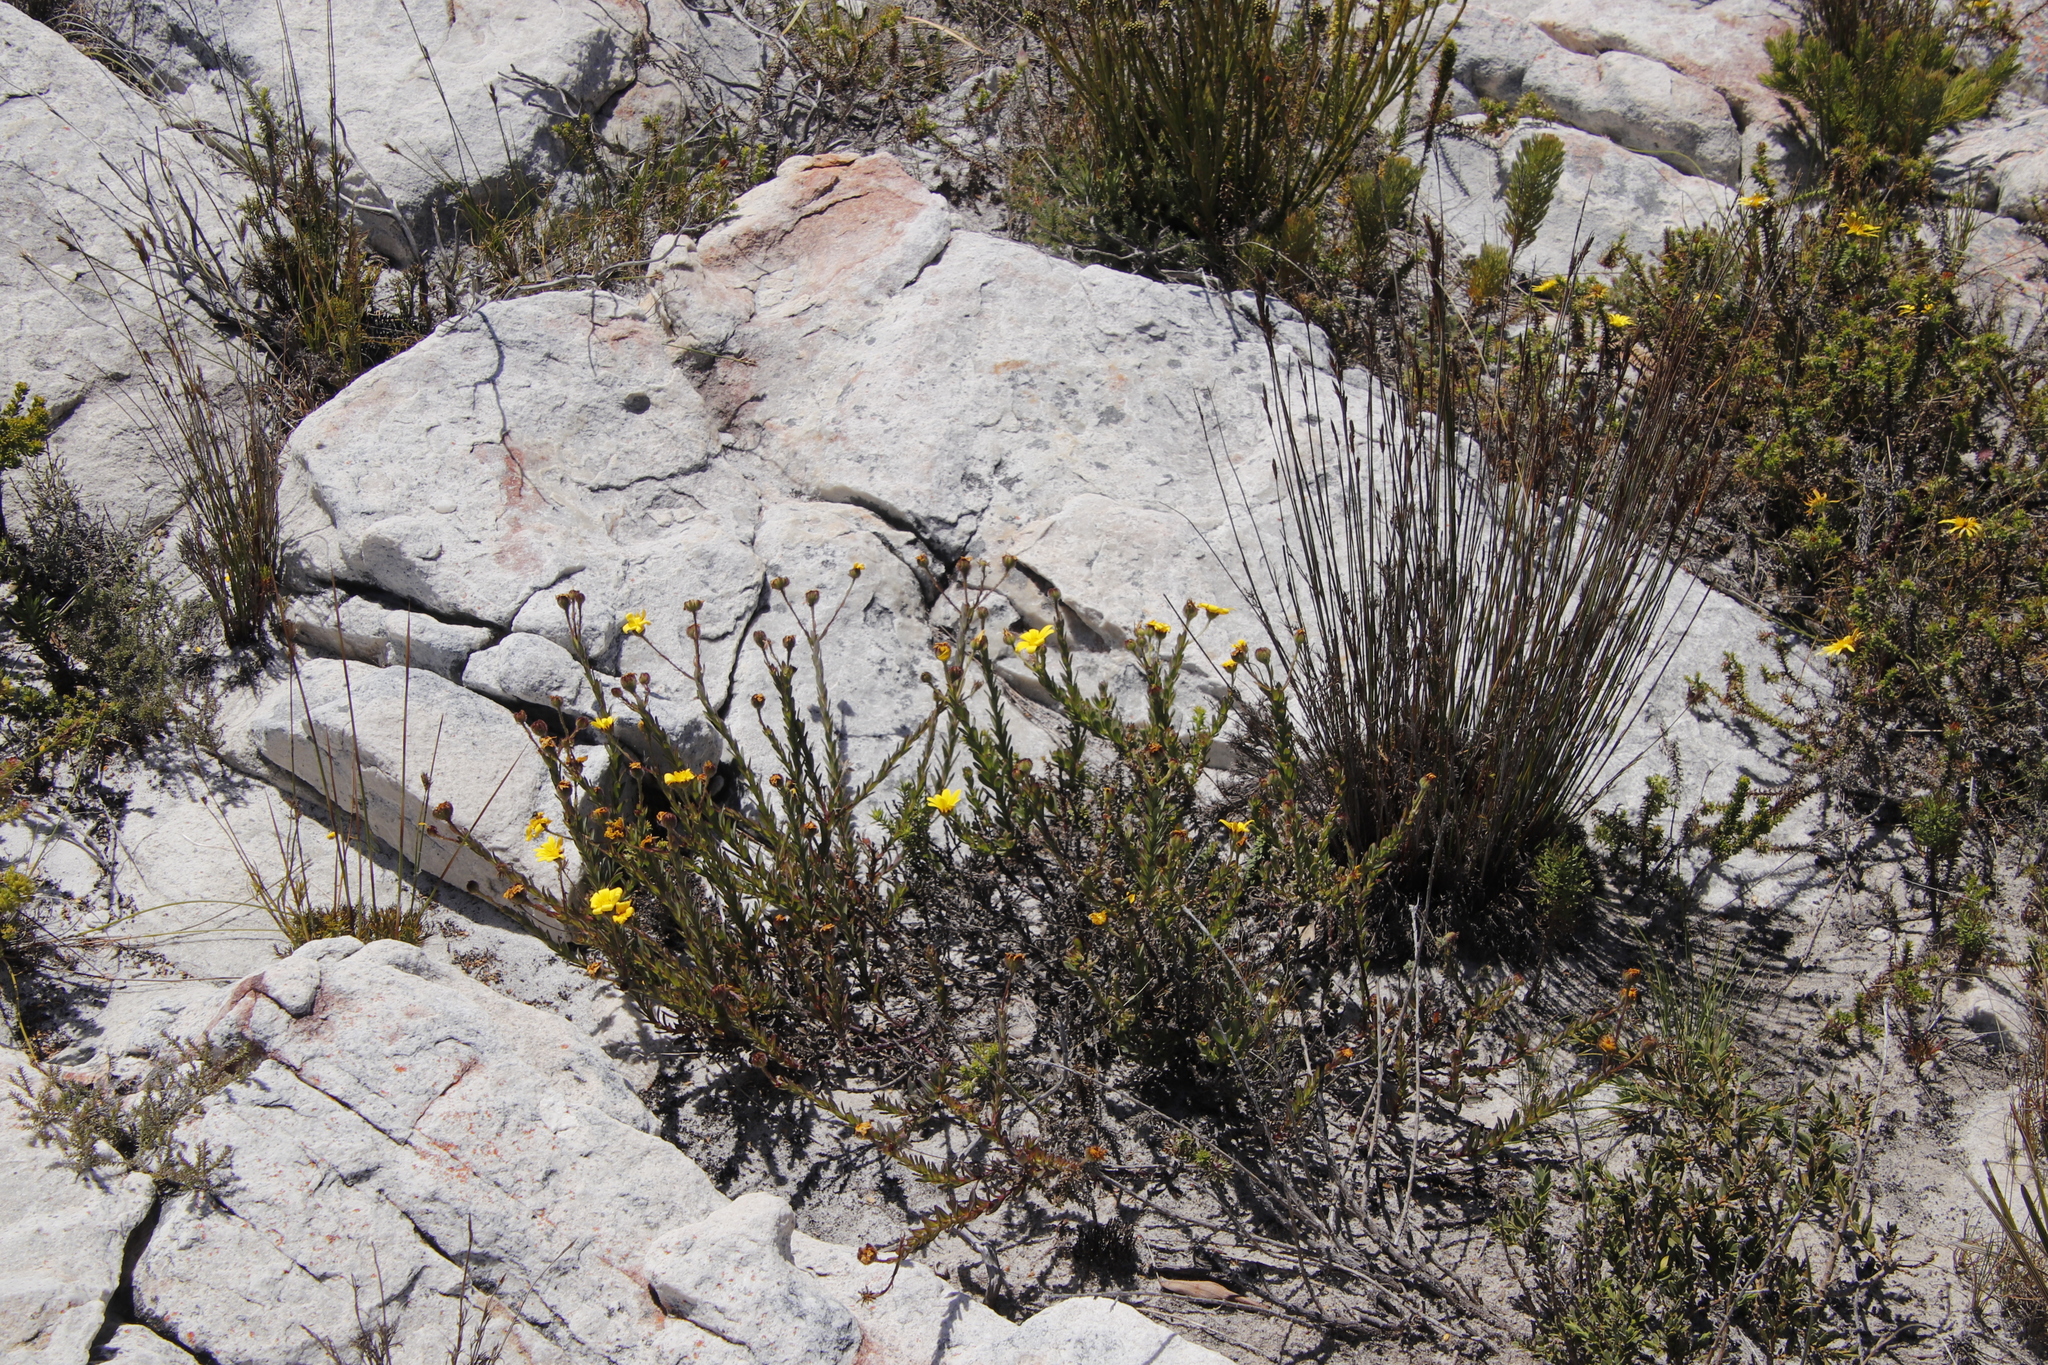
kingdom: Plantae
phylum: Tracheophyta
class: Magnoliopsida
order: Asterales
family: Asteraceae
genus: Osteospermum
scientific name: Osteospermum polygaloides
